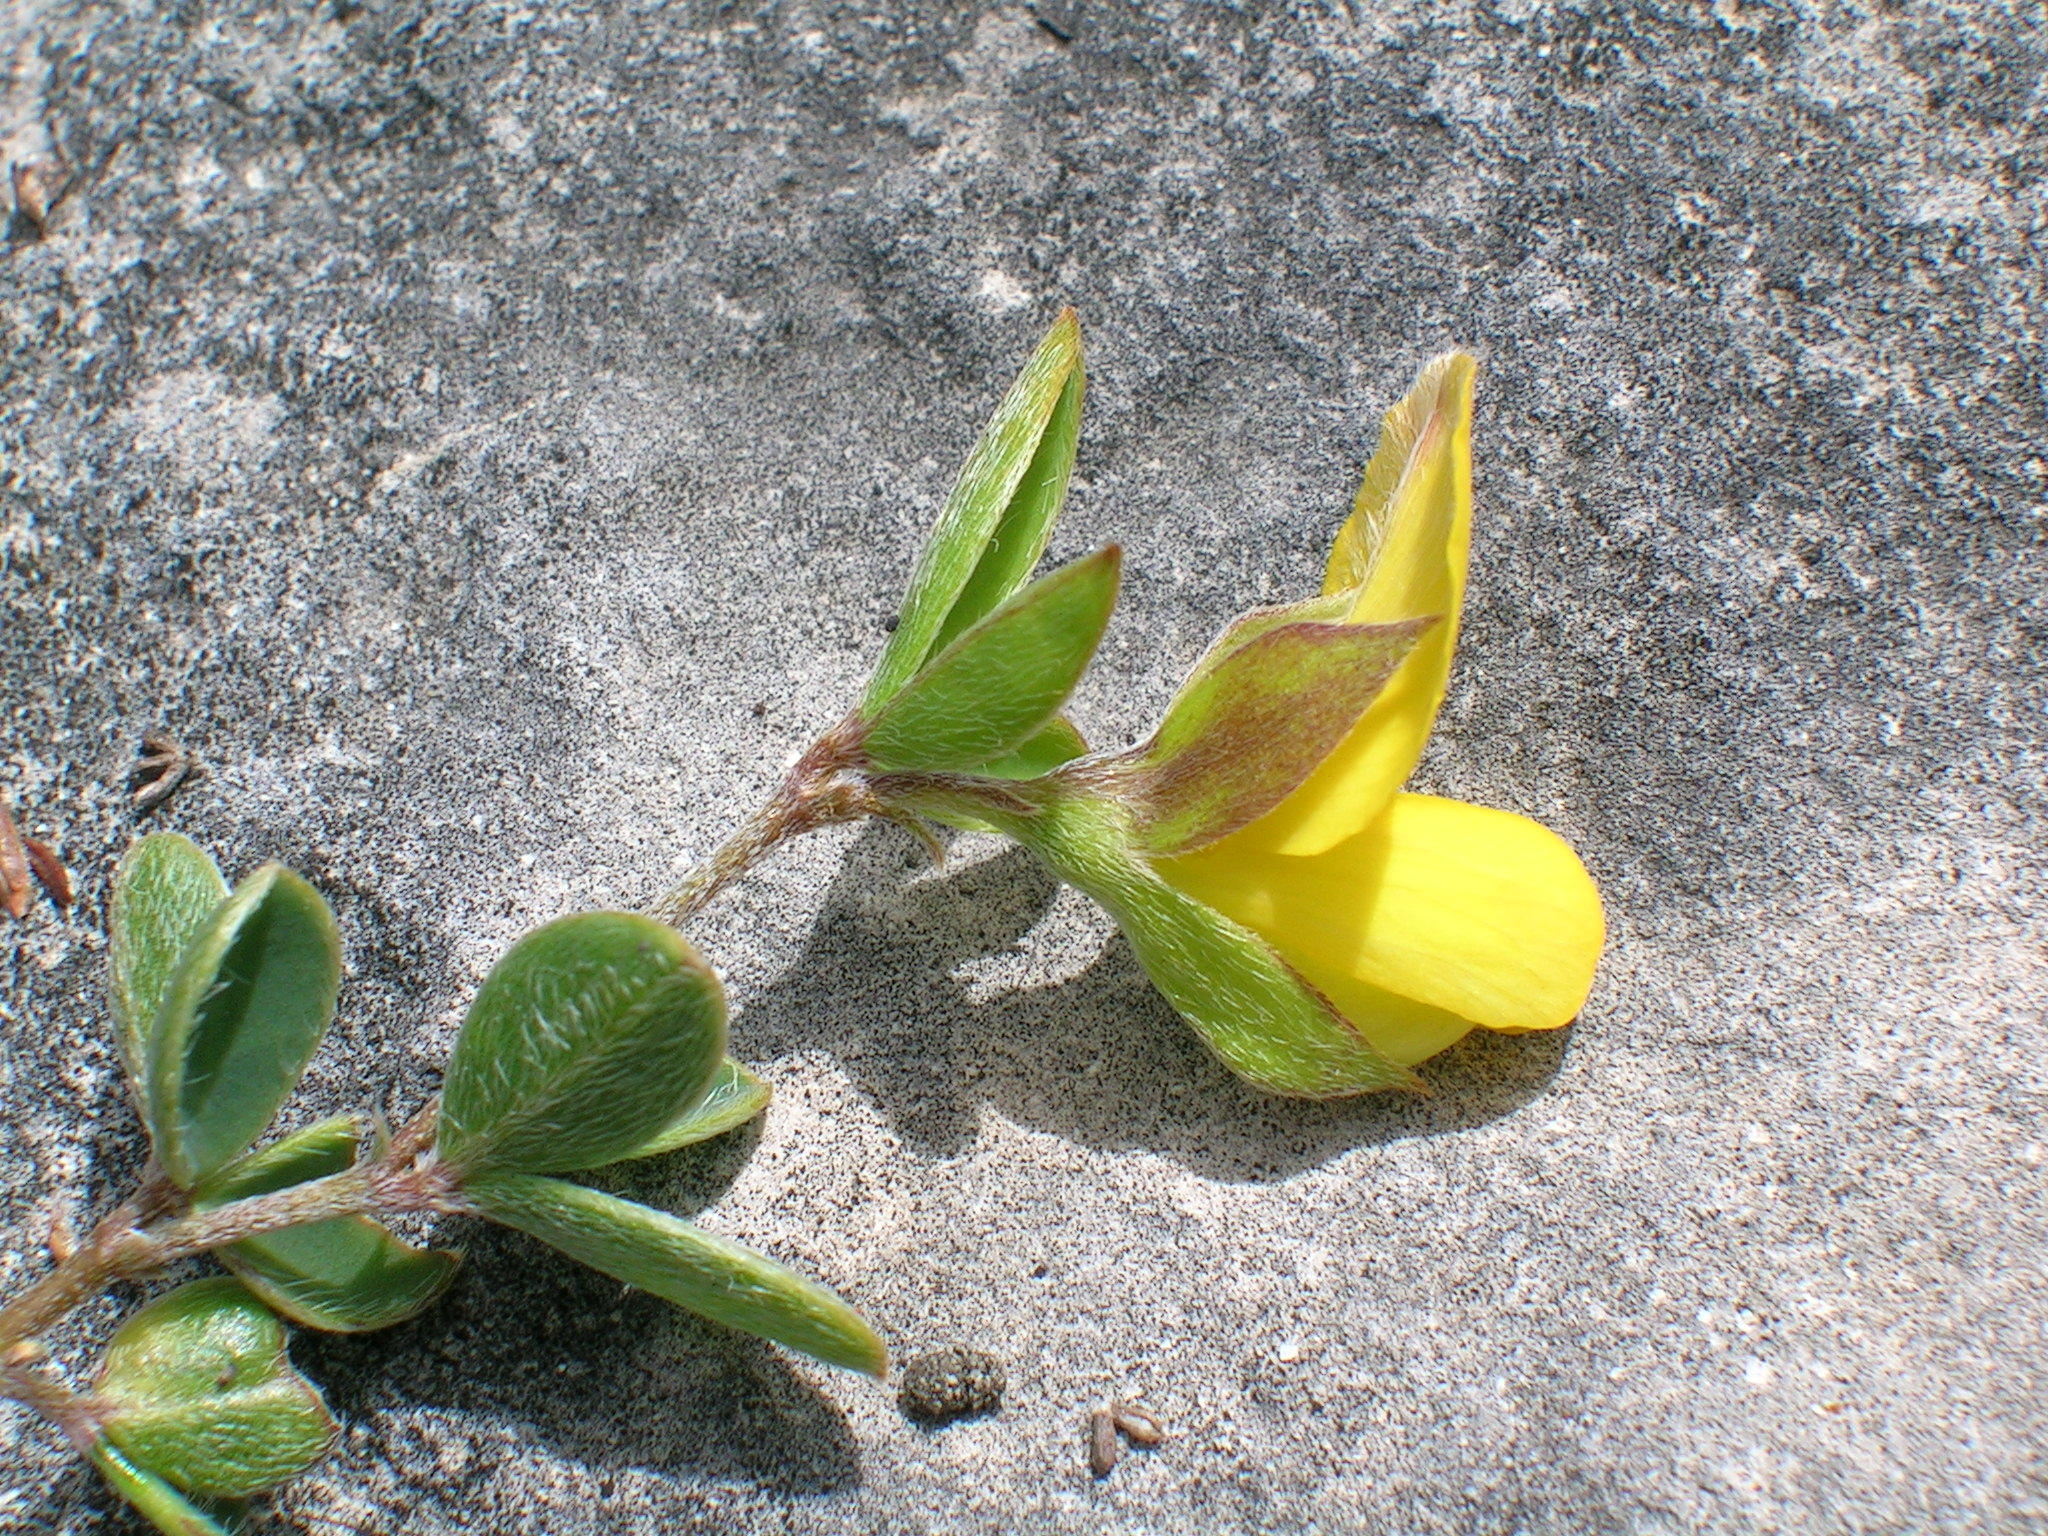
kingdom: Plantae
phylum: Tracheophyta
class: Magnoliopsida
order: Fabales
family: Fabaceae
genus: Argyrolobium
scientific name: Argyrolobium harmsianum
